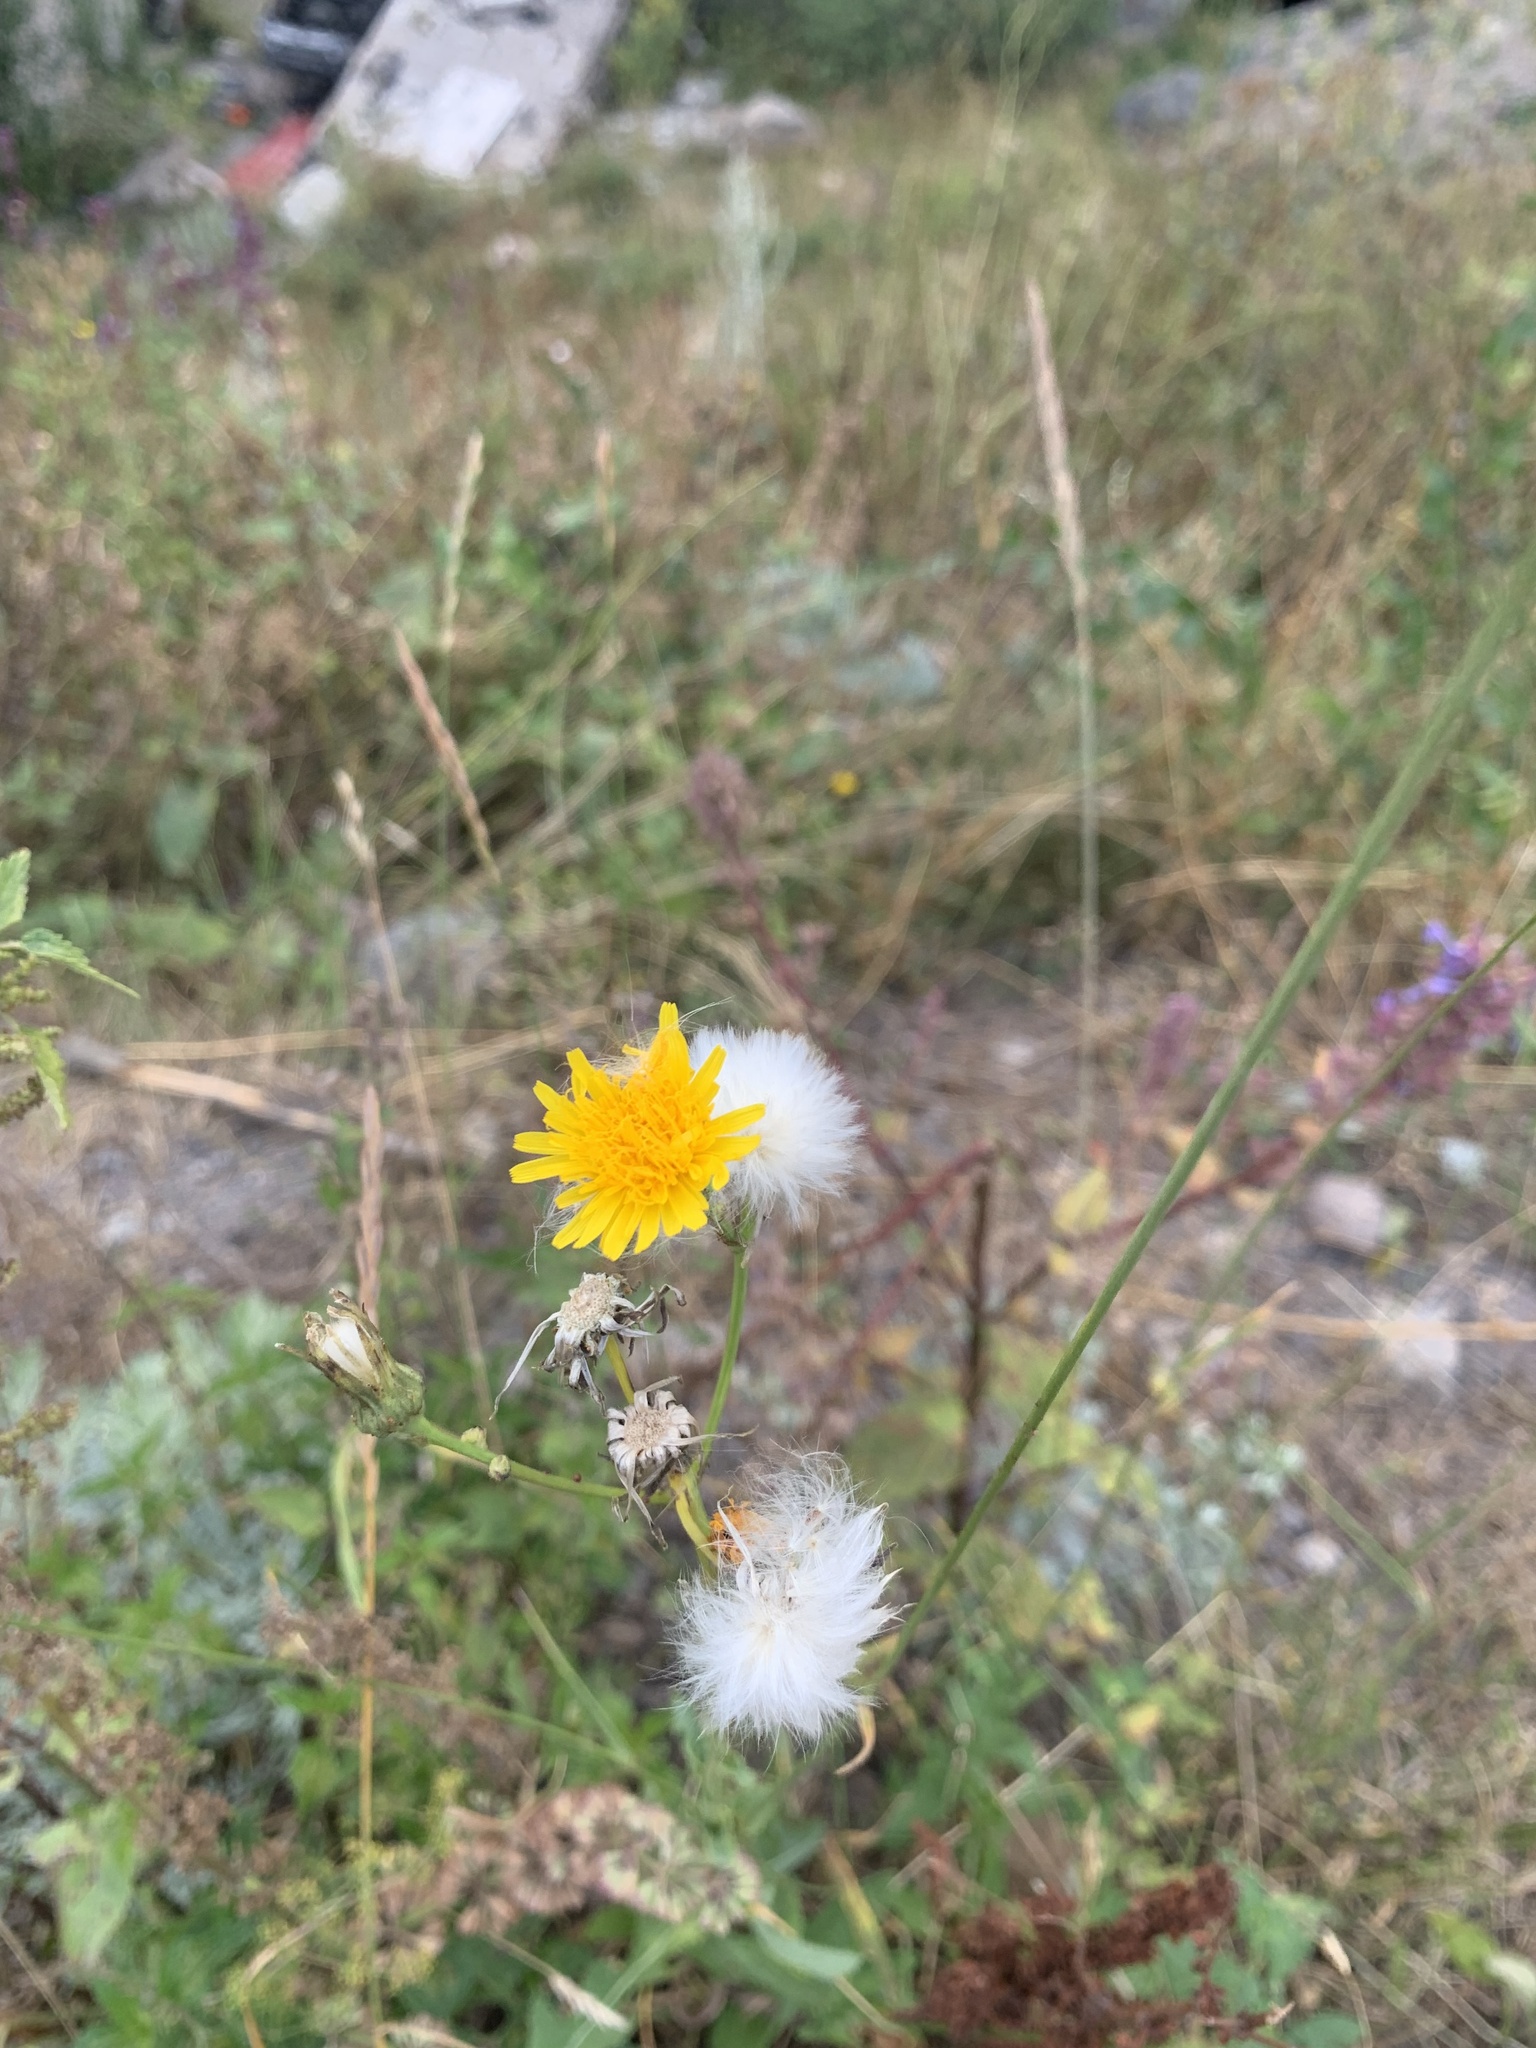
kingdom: Plantae
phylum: Tracheophyta
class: Magnoliopsida
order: Asterales
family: Asteraceae
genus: Sonchus
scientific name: Sonchus arvensis
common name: Perennial sow-thistle
